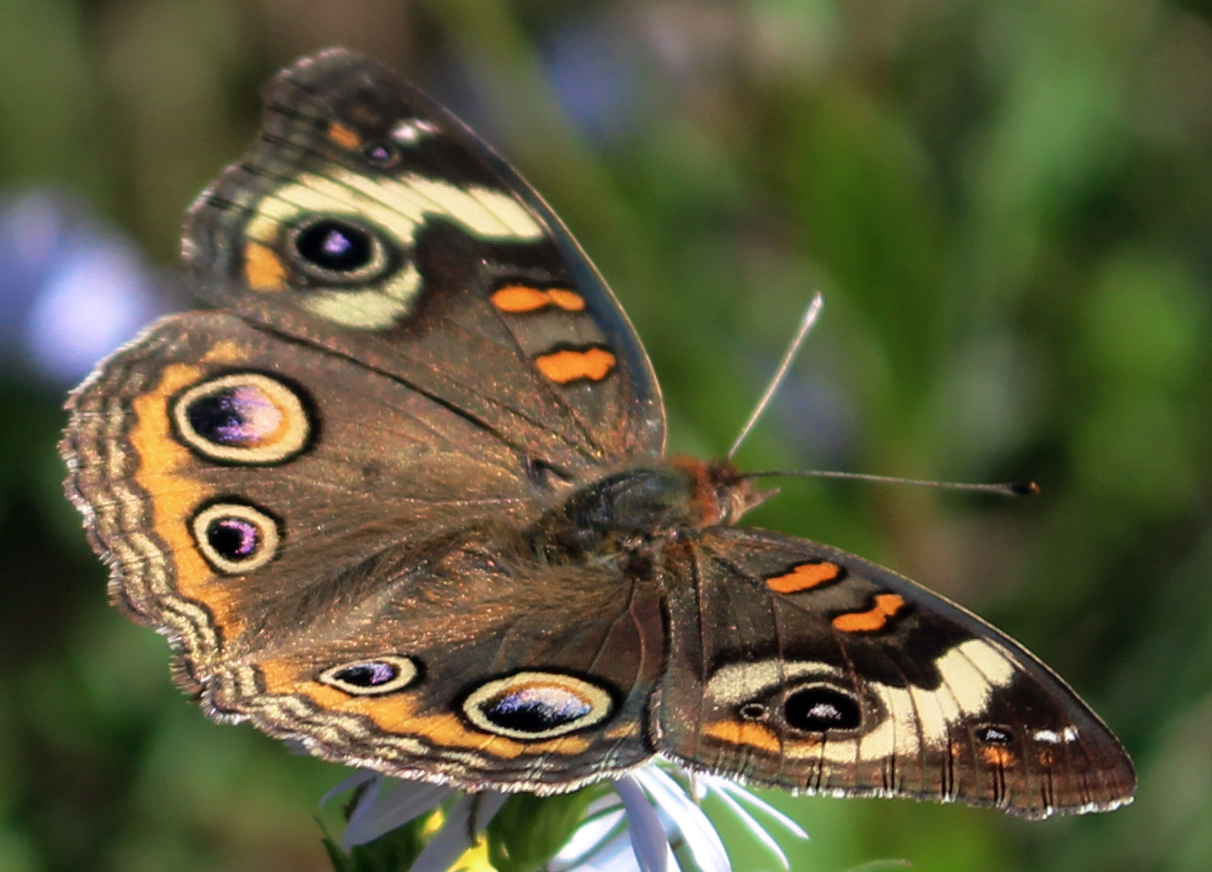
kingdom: Animalia
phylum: Arthropoda
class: Insecta
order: Lepidoptera
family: Nymphalidae
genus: Junonia
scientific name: Junonia coenia
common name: Common buckeye
